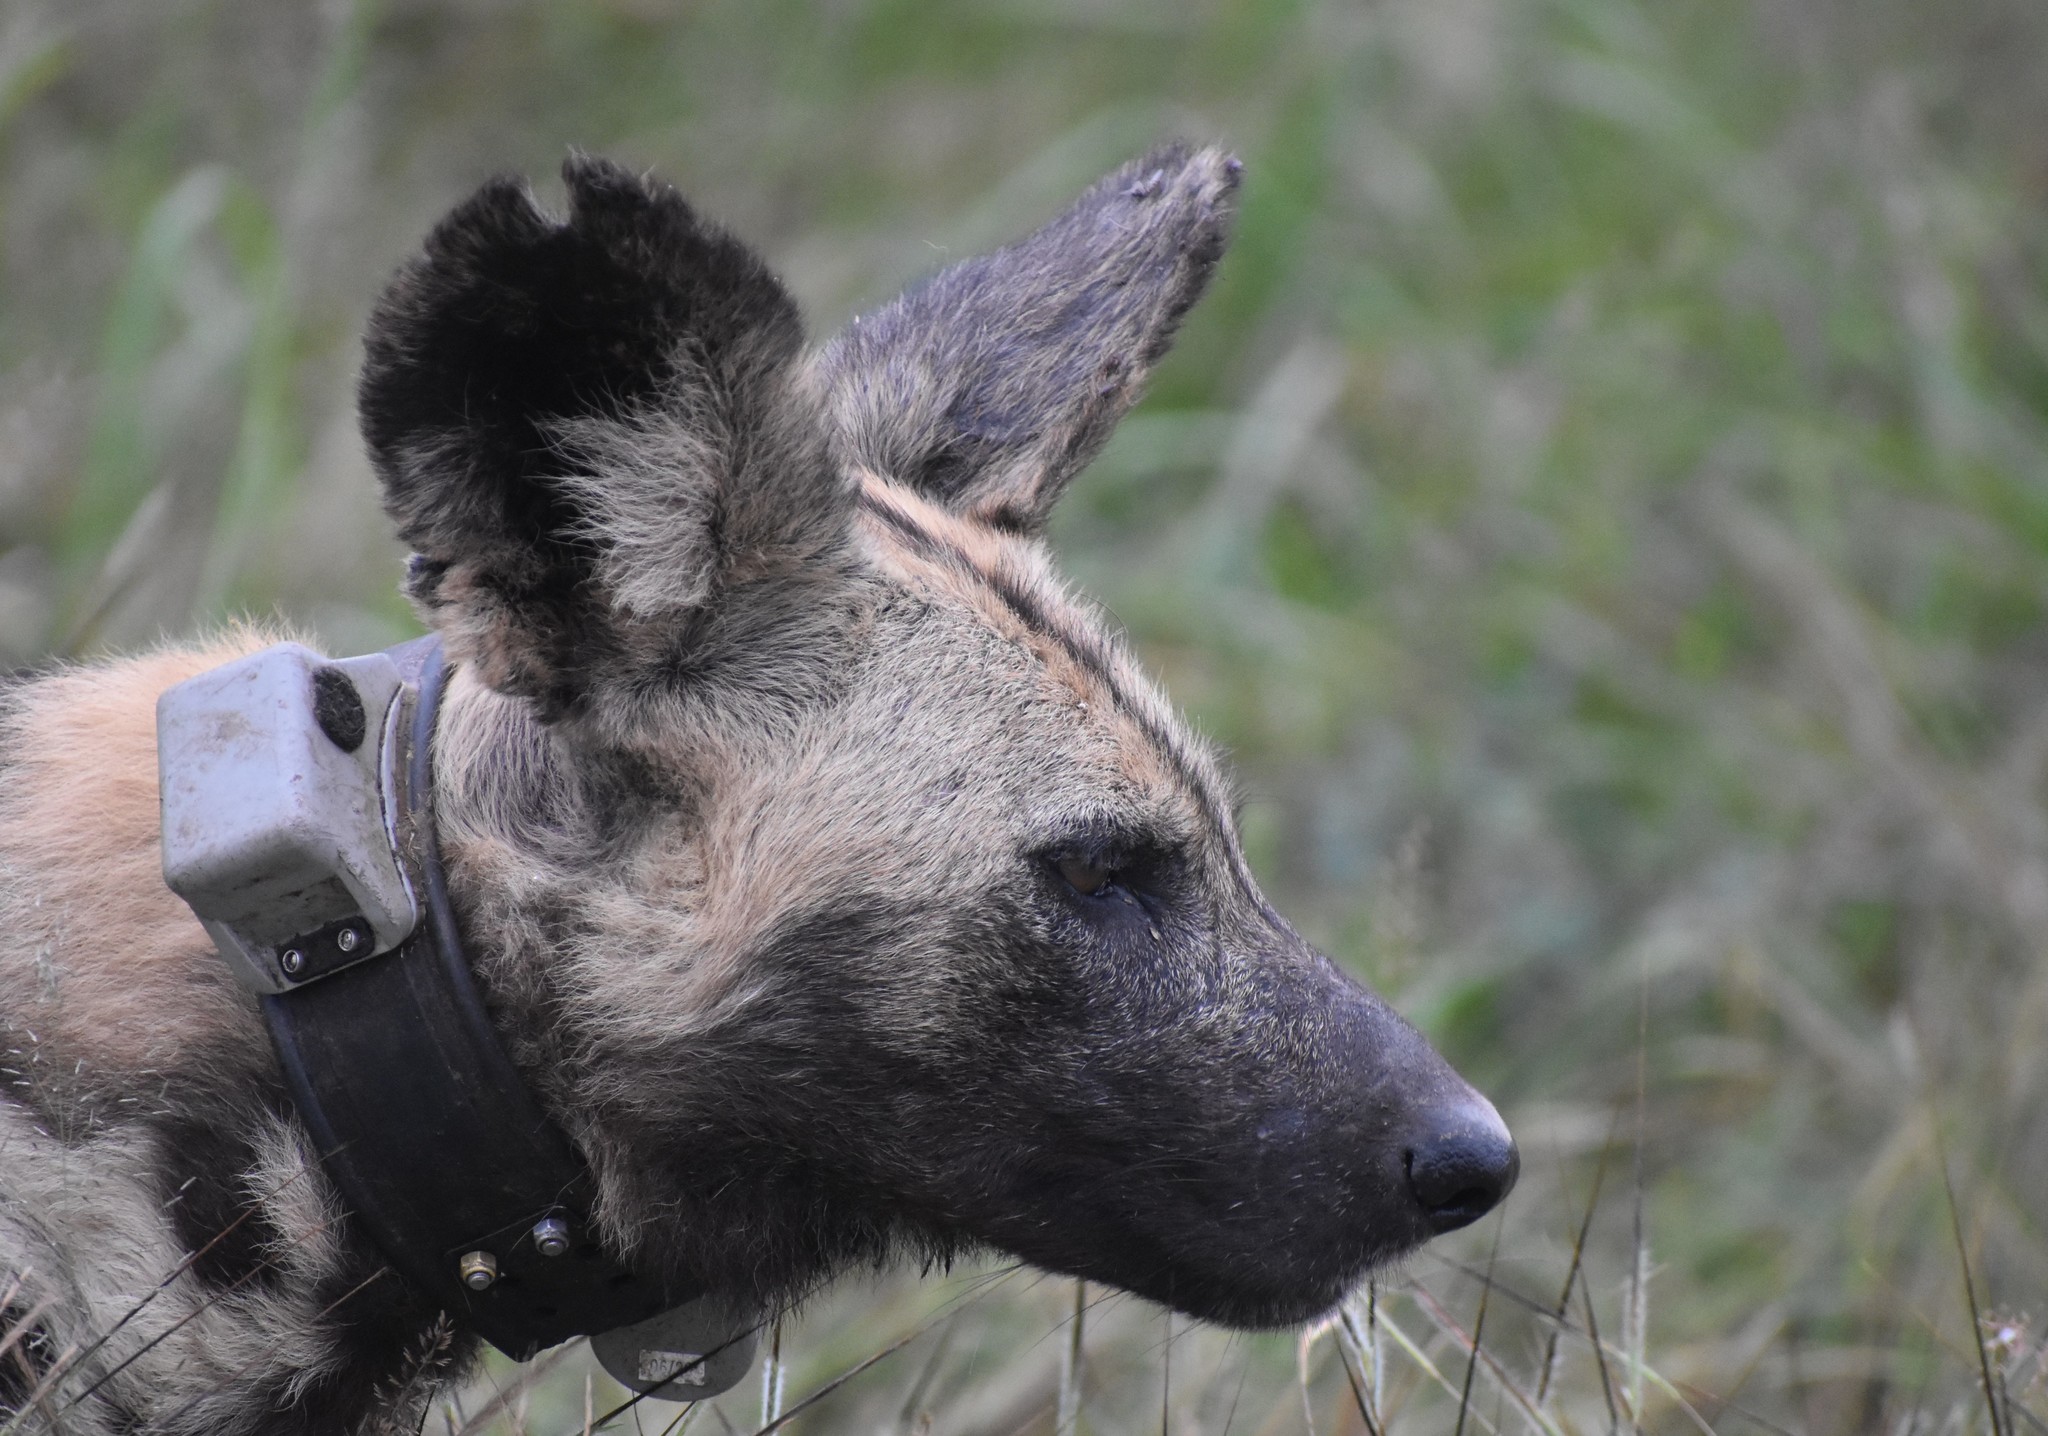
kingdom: Animalia
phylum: Chordata
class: Mammalia
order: Carnivora
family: Canidae
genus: Lycaon
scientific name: Lycaon pictus
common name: African wild dog
